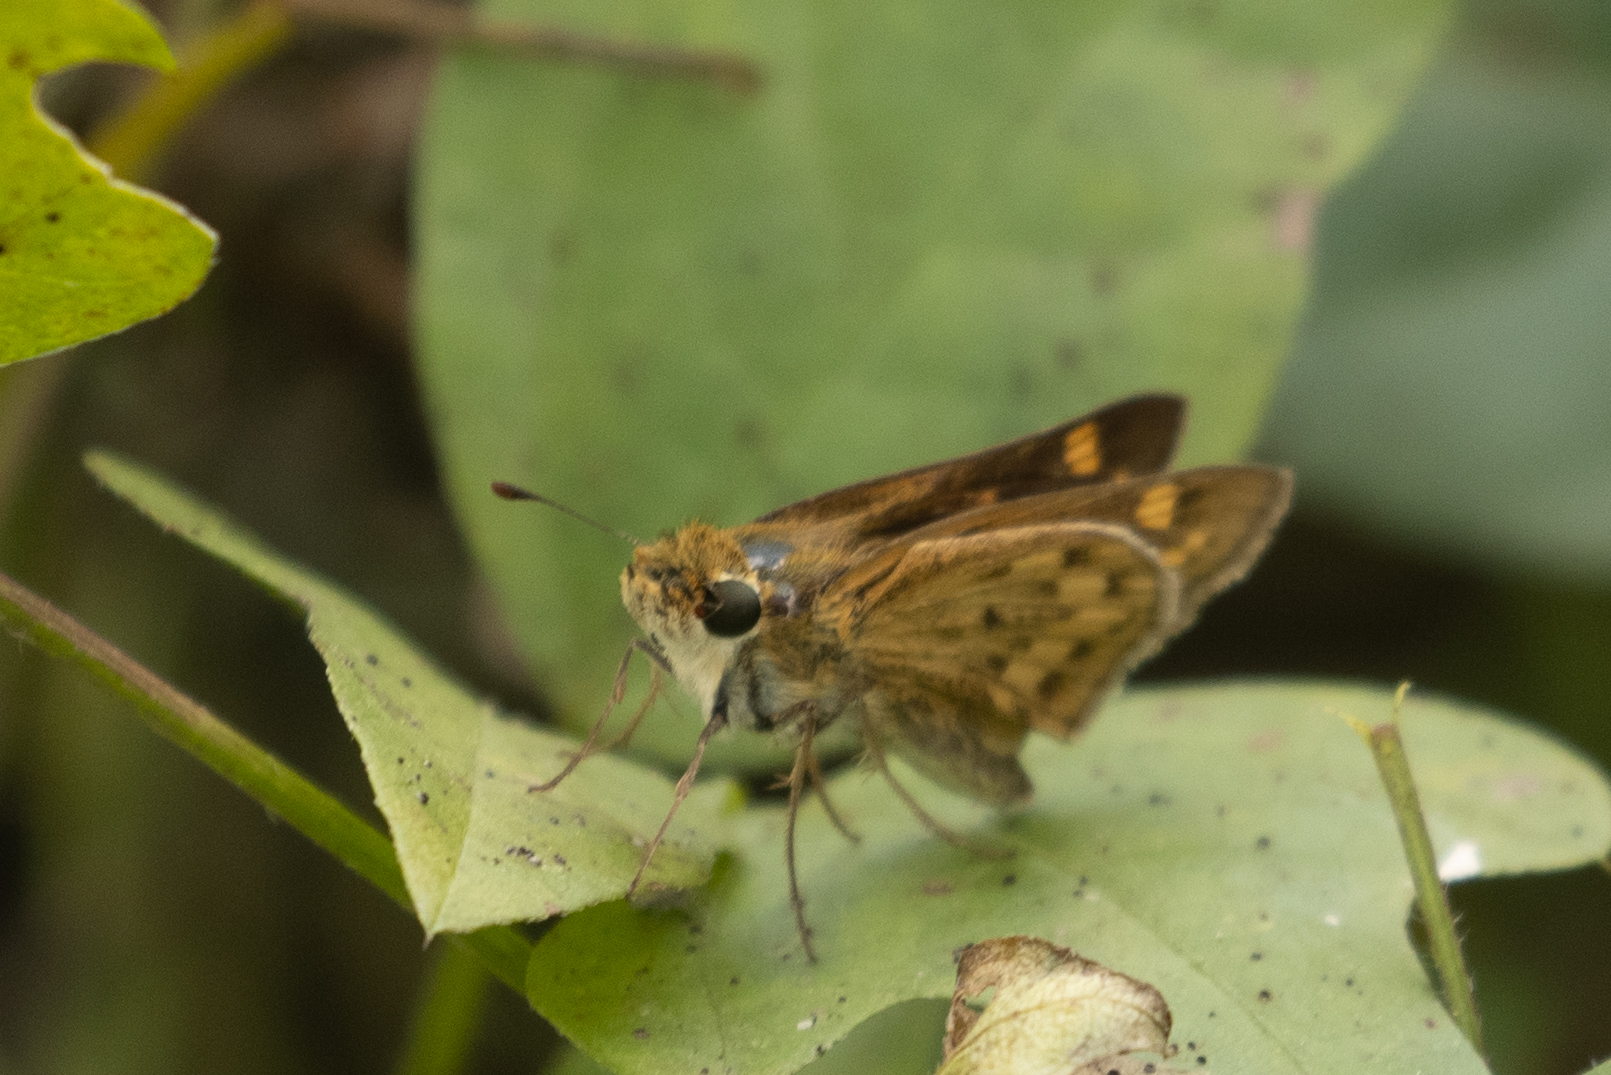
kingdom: Animalia
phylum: Arthropoda
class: Insecta
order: Lepidoptera
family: Hesperiidae
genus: Hylephila
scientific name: Hylephila phyleus
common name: Fiery skipper
